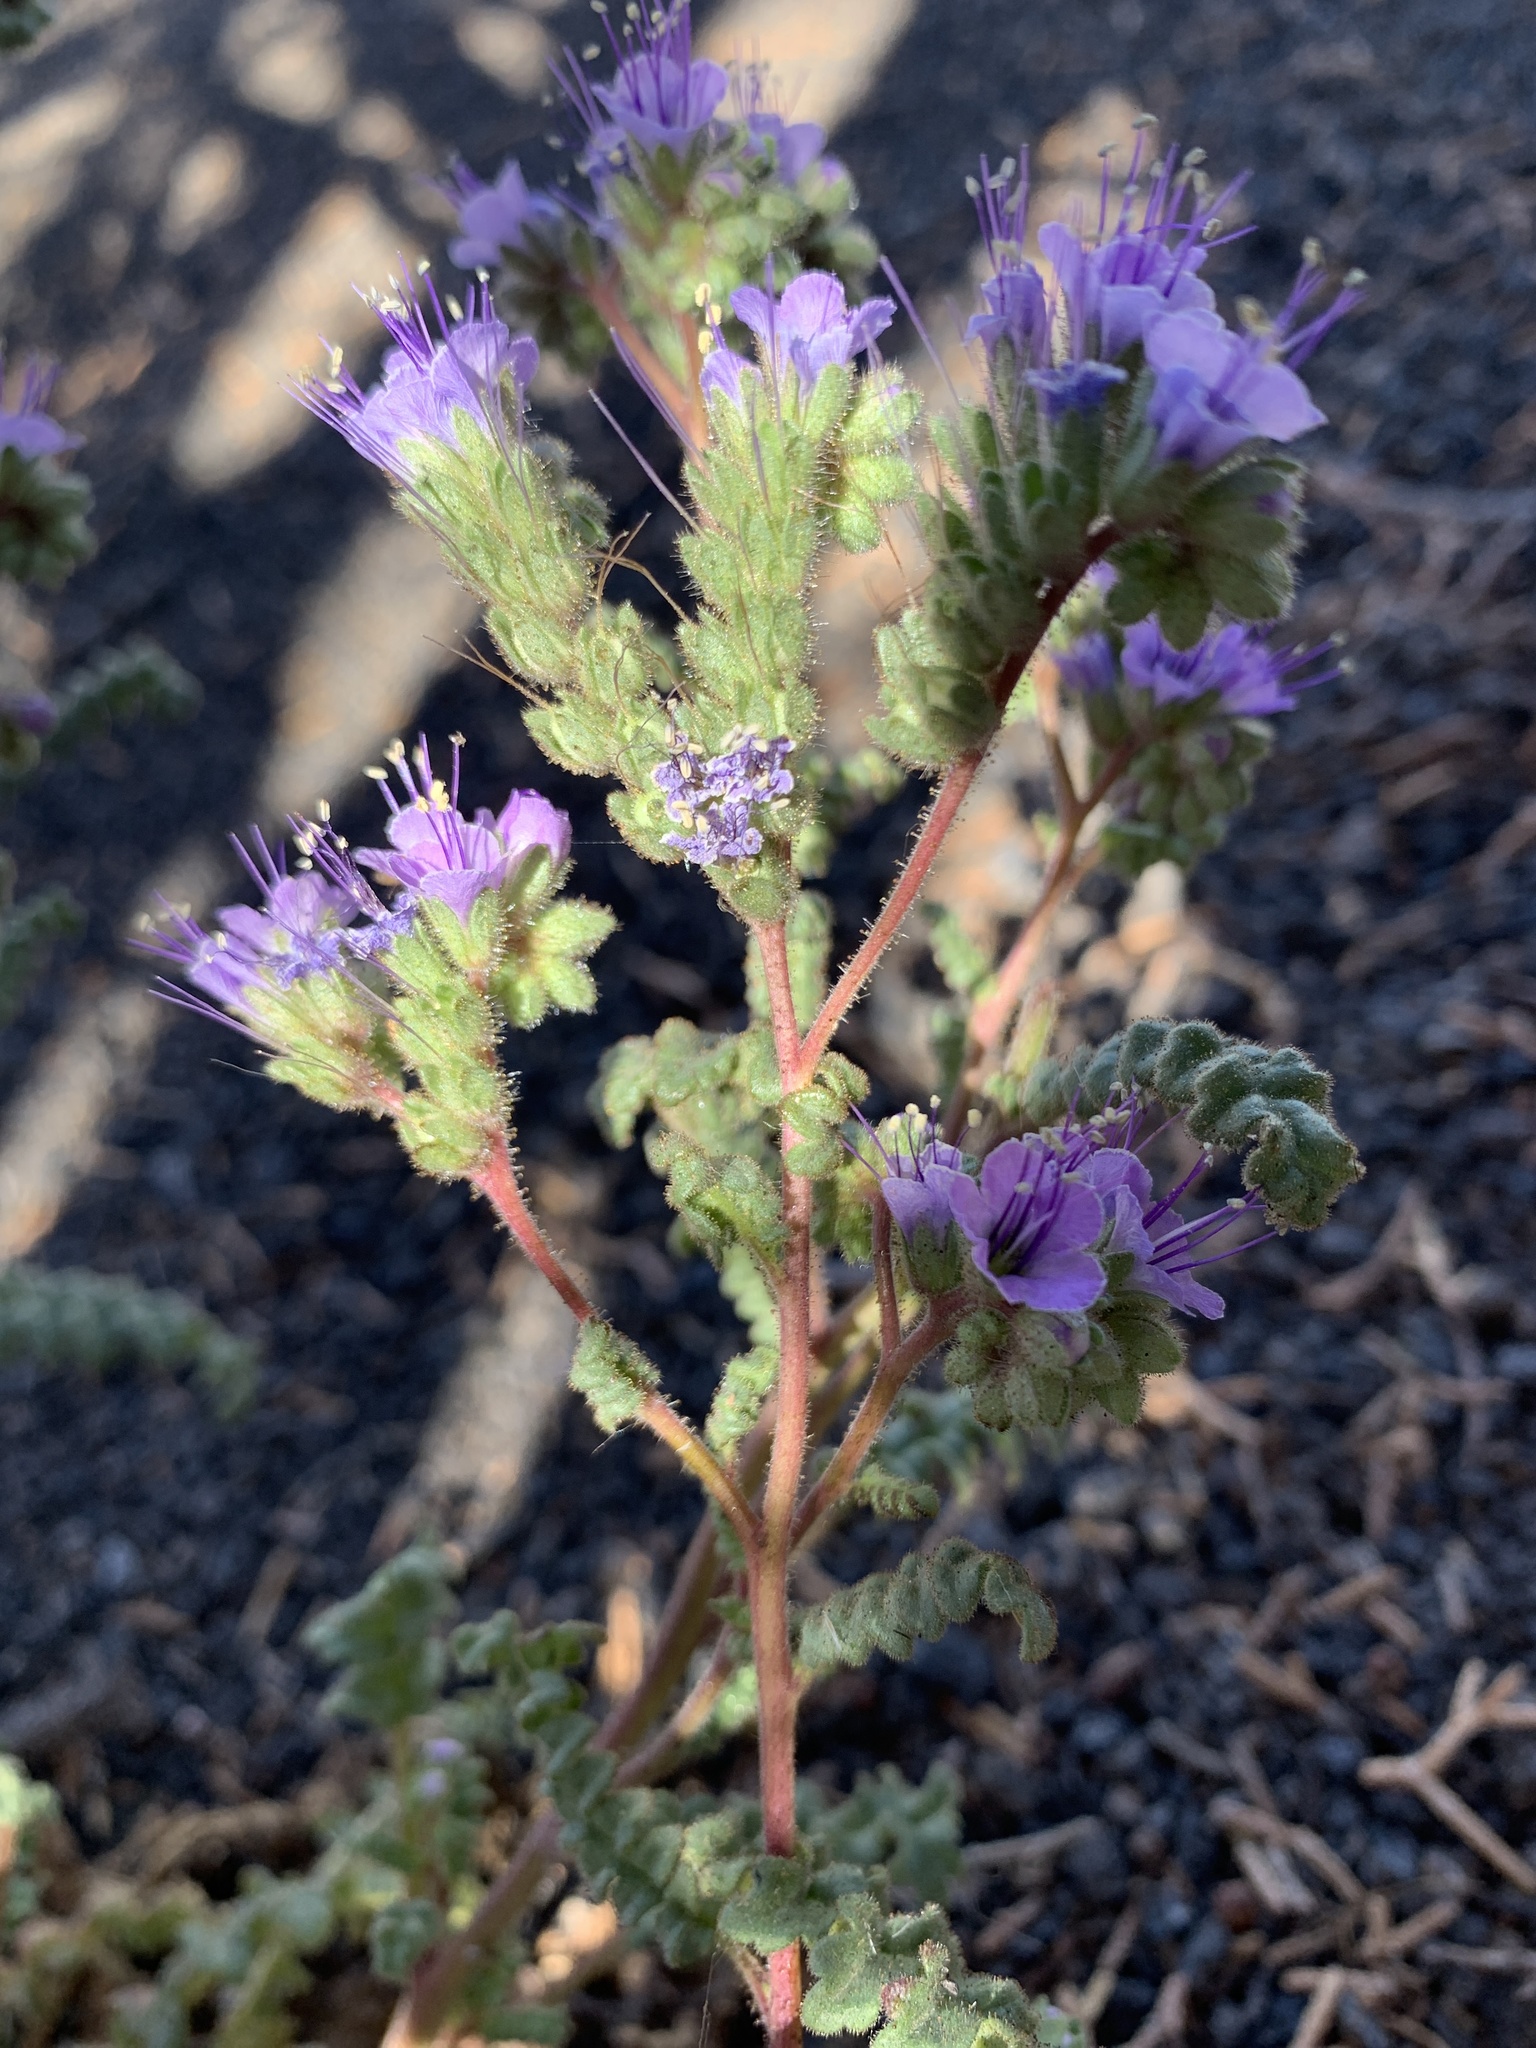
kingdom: Plantae
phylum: Tracheophyta
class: Magnoliopsida
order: Boraginales
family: Hydrophyllaceae
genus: Phacelia
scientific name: Phacelia crenulata
